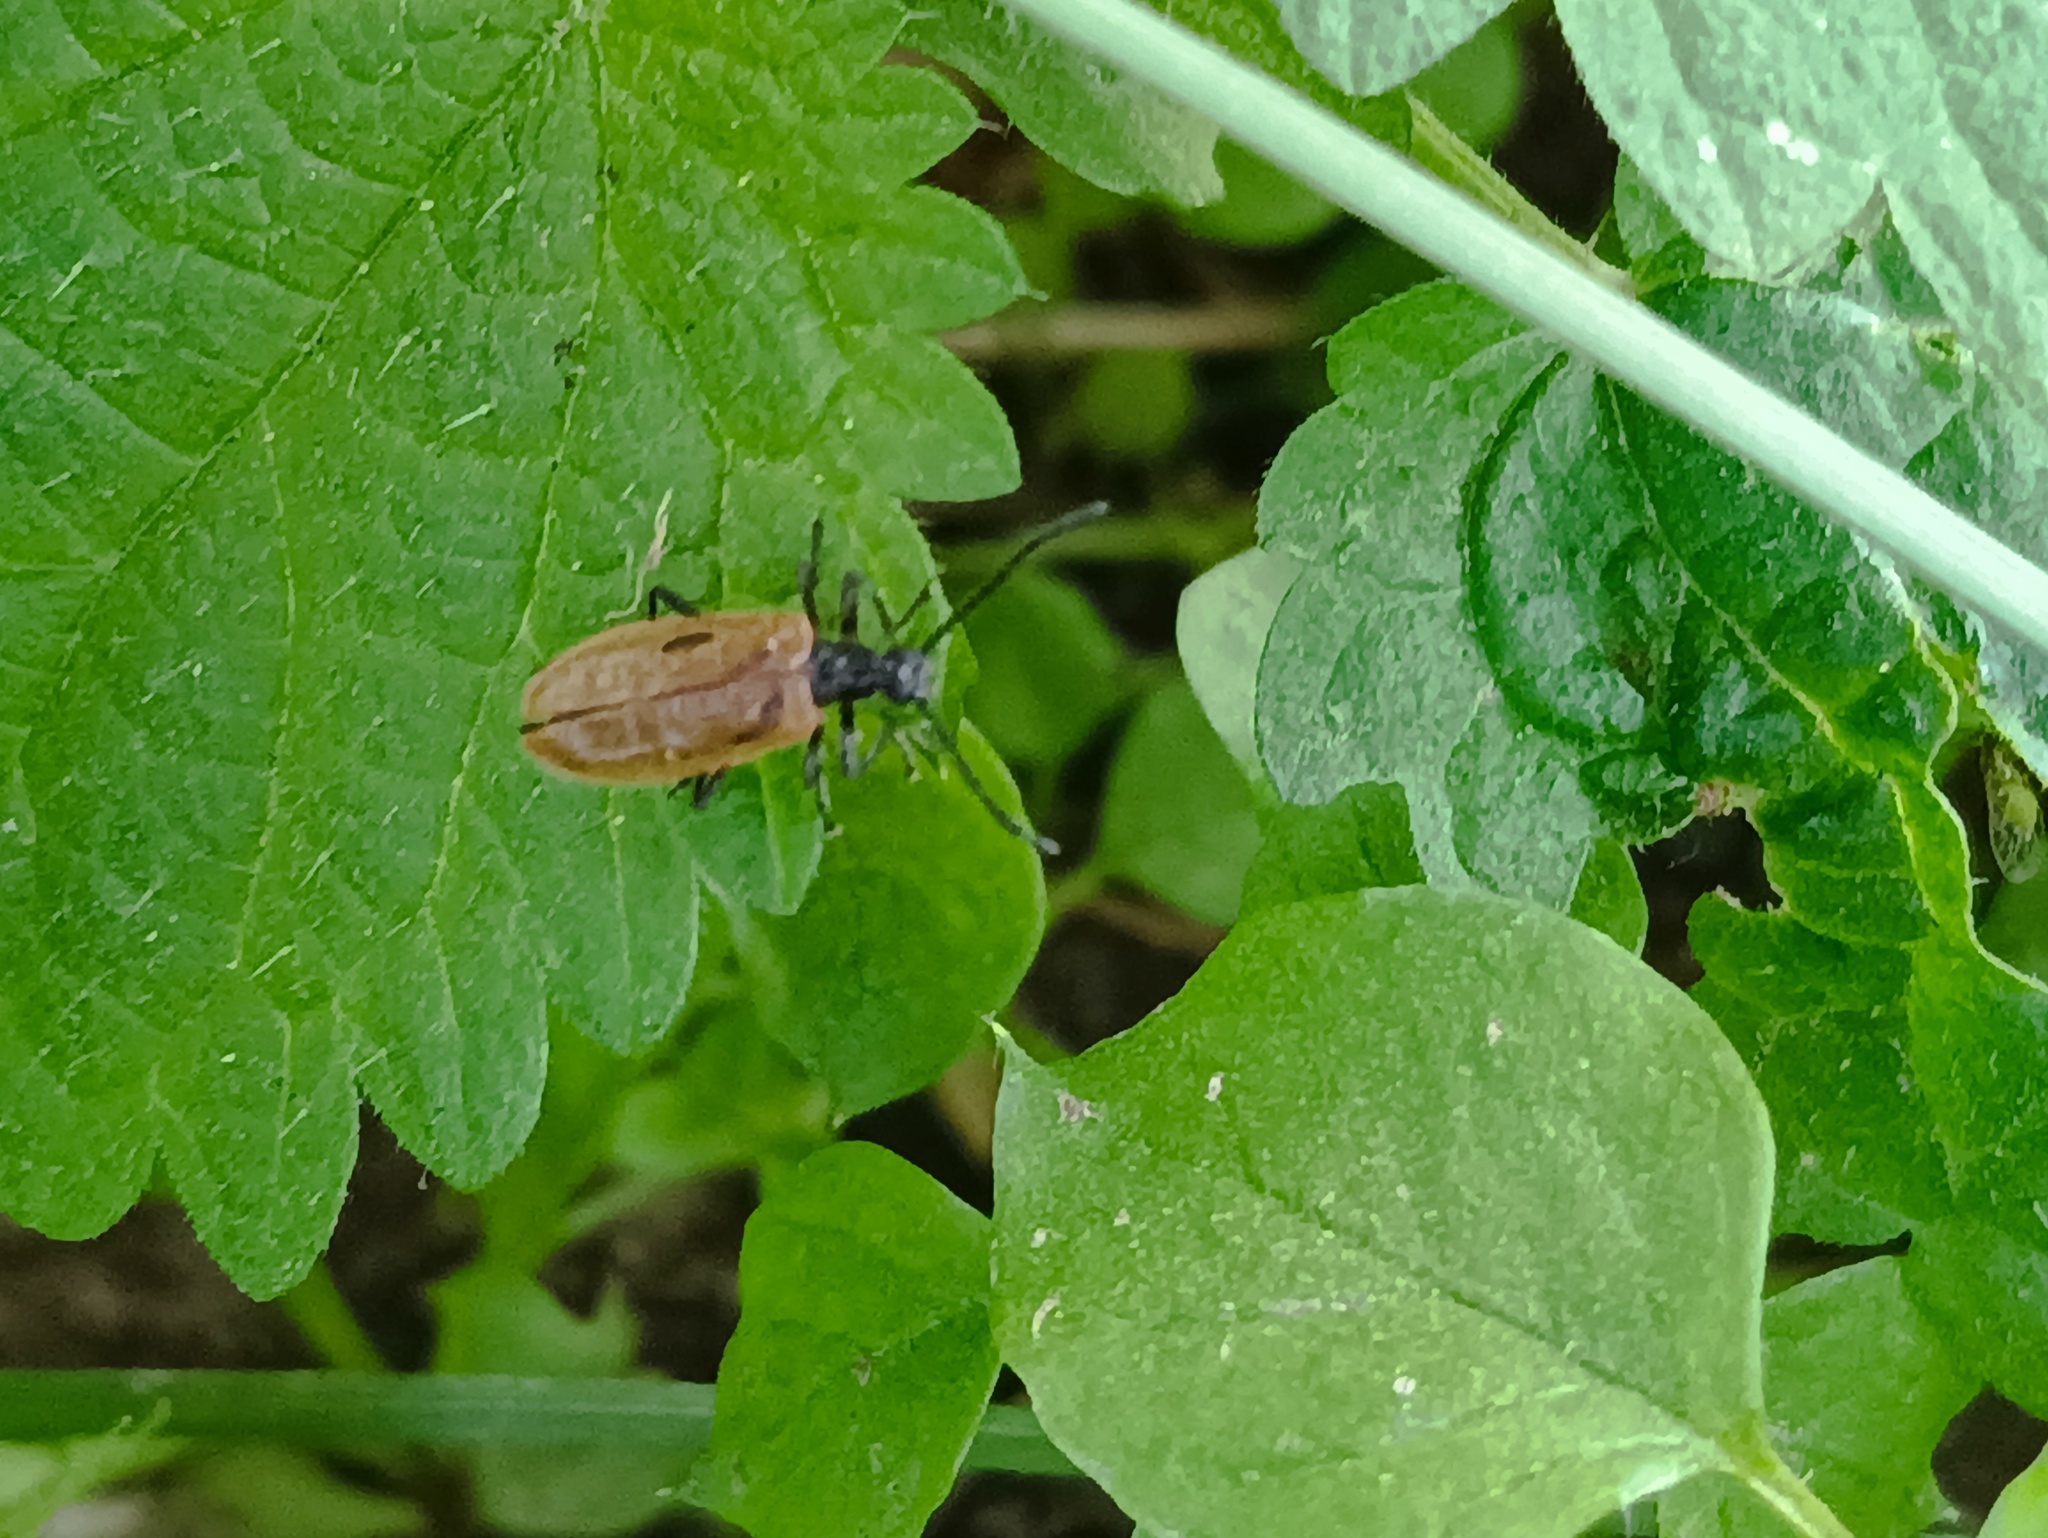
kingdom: Animalia
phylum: Arthropoda
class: Insecta
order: Coleoptera
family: Tenebrionidae
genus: Lagria
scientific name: Lagria hirta
